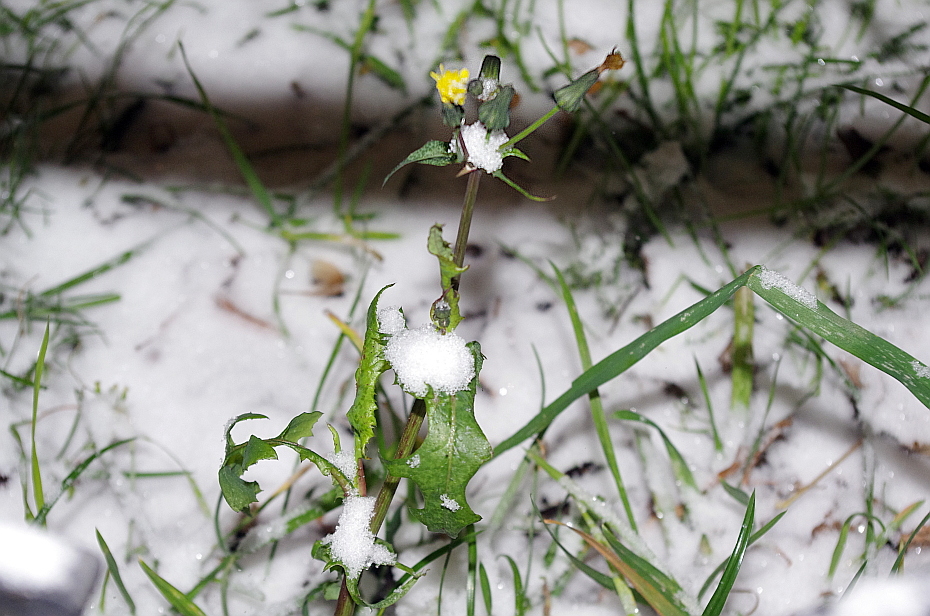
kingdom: Plantae
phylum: Tracheophyta
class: Magnoliopsida
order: Asterales
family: Asteraceae
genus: Sonchus
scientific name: Sonchus oleraceus
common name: Common sowthistle
